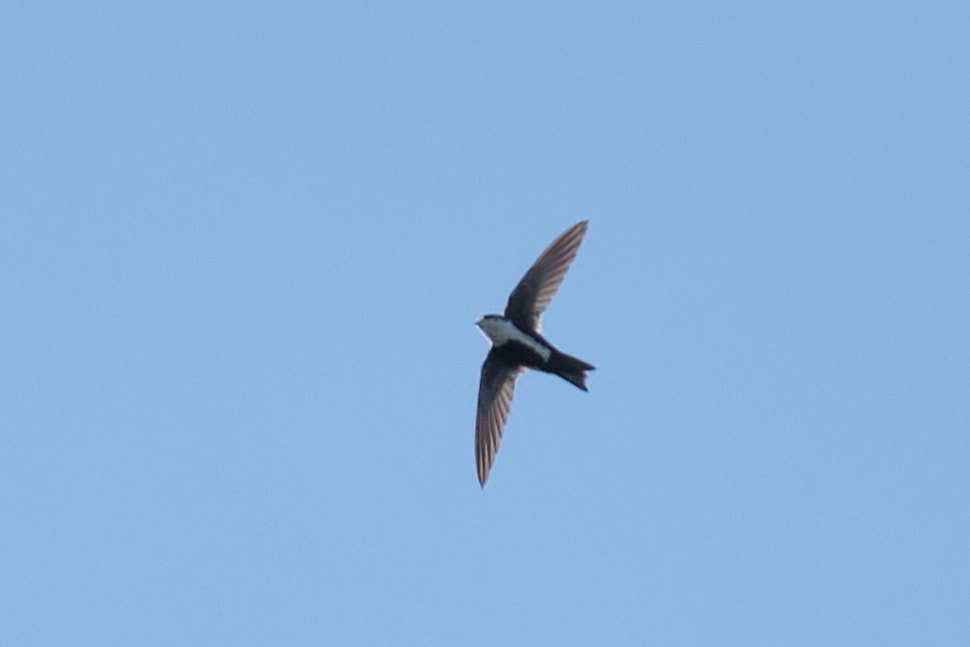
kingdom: Animalia
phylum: Chordata
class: Aves
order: Apodiformes
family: Apodidae
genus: Aeronautes
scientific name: Aeronautes saxatalis
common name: White-throated swift
